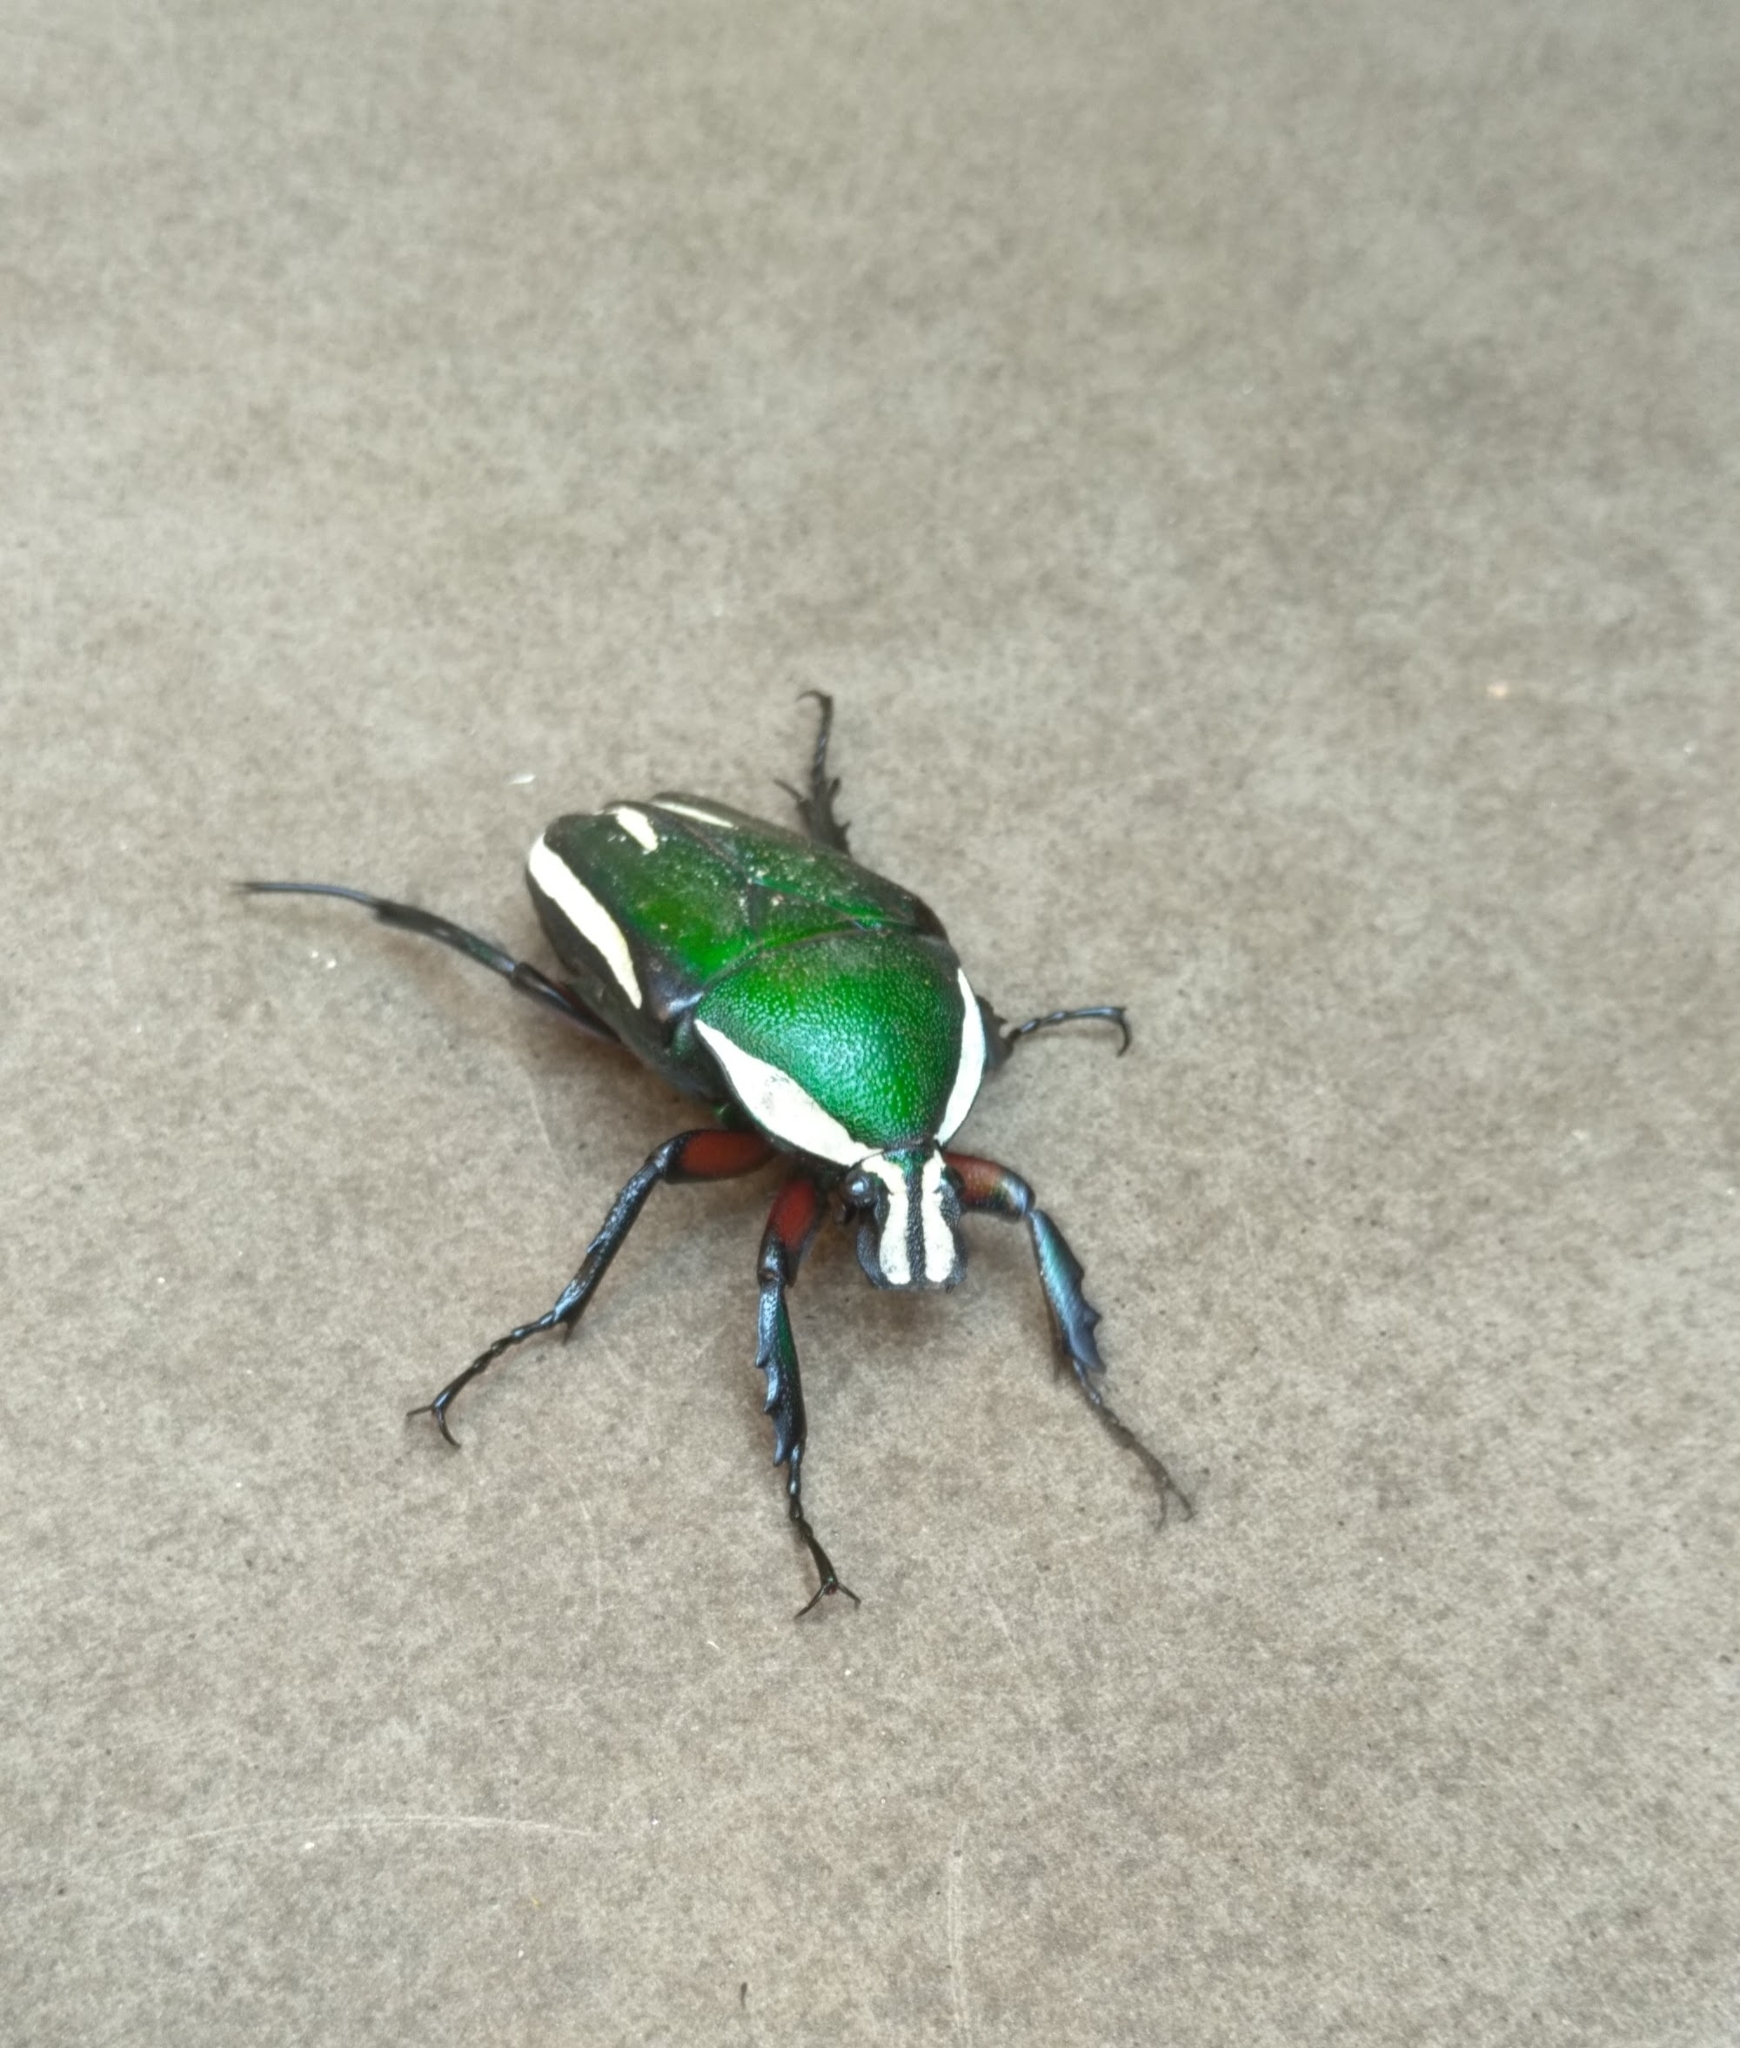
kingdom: Animalia
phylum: Arthropoda
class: Insecta
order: Coleoptera
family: Scarabaeidae
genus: Dicronorhina
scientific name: Dicronorhina derbyana
